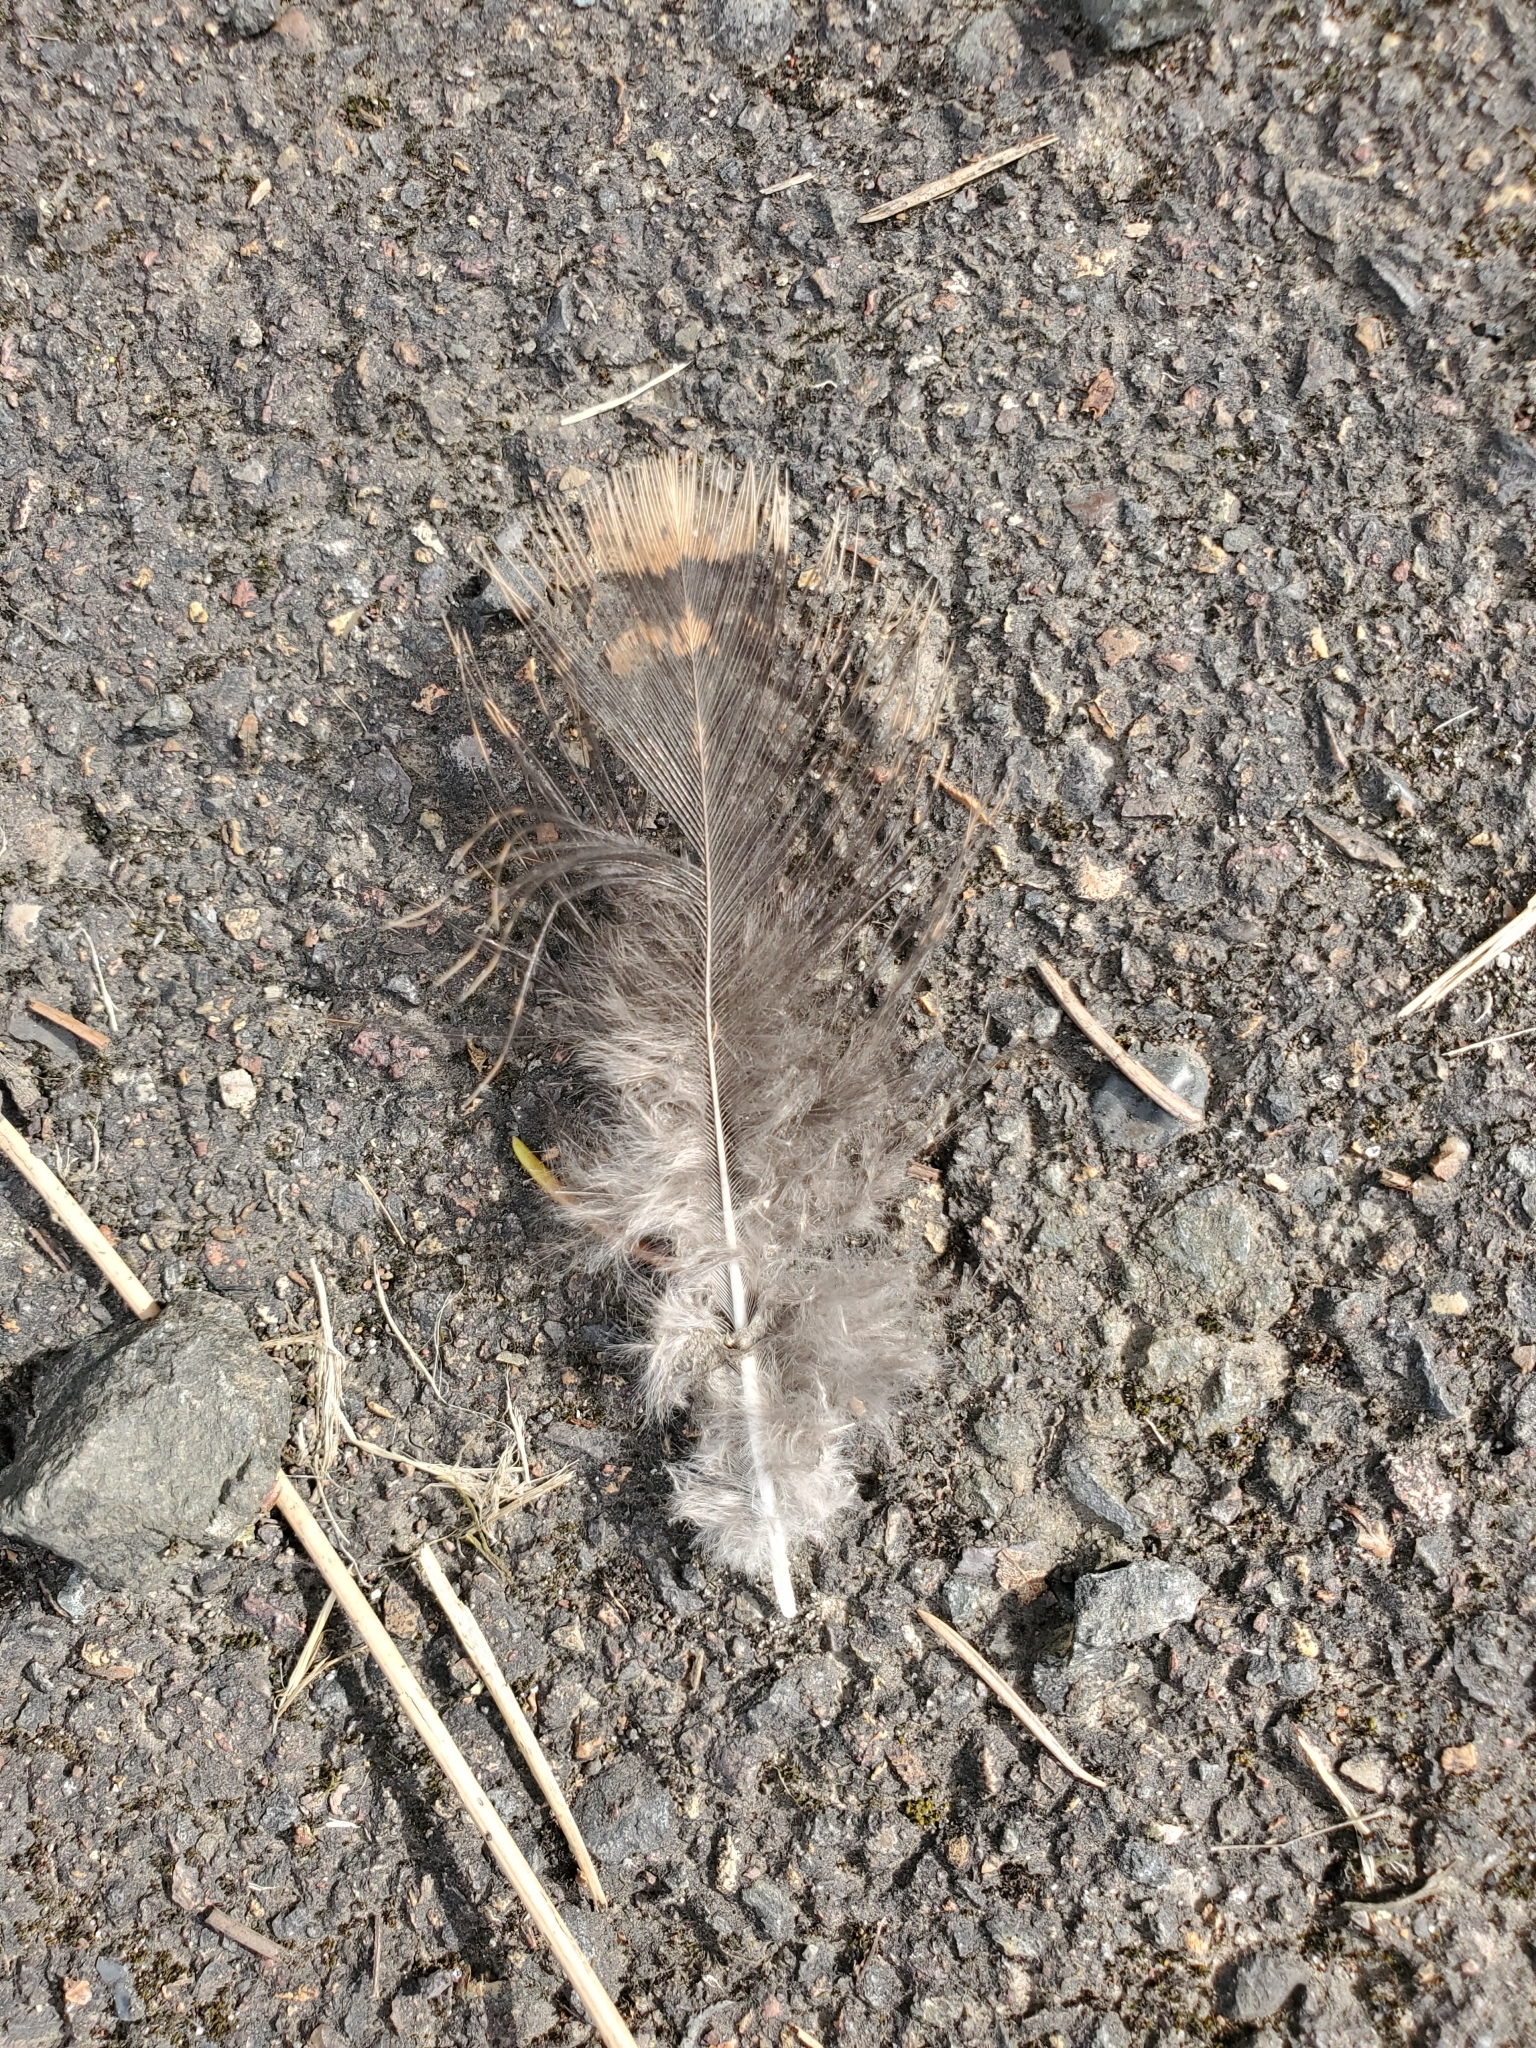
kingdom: Animalia
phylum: Chordata
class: Aves
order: Galliformes
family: Phasianidae
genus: Meleagris
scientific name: Meleagris gallopavo
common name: Wild turkey
